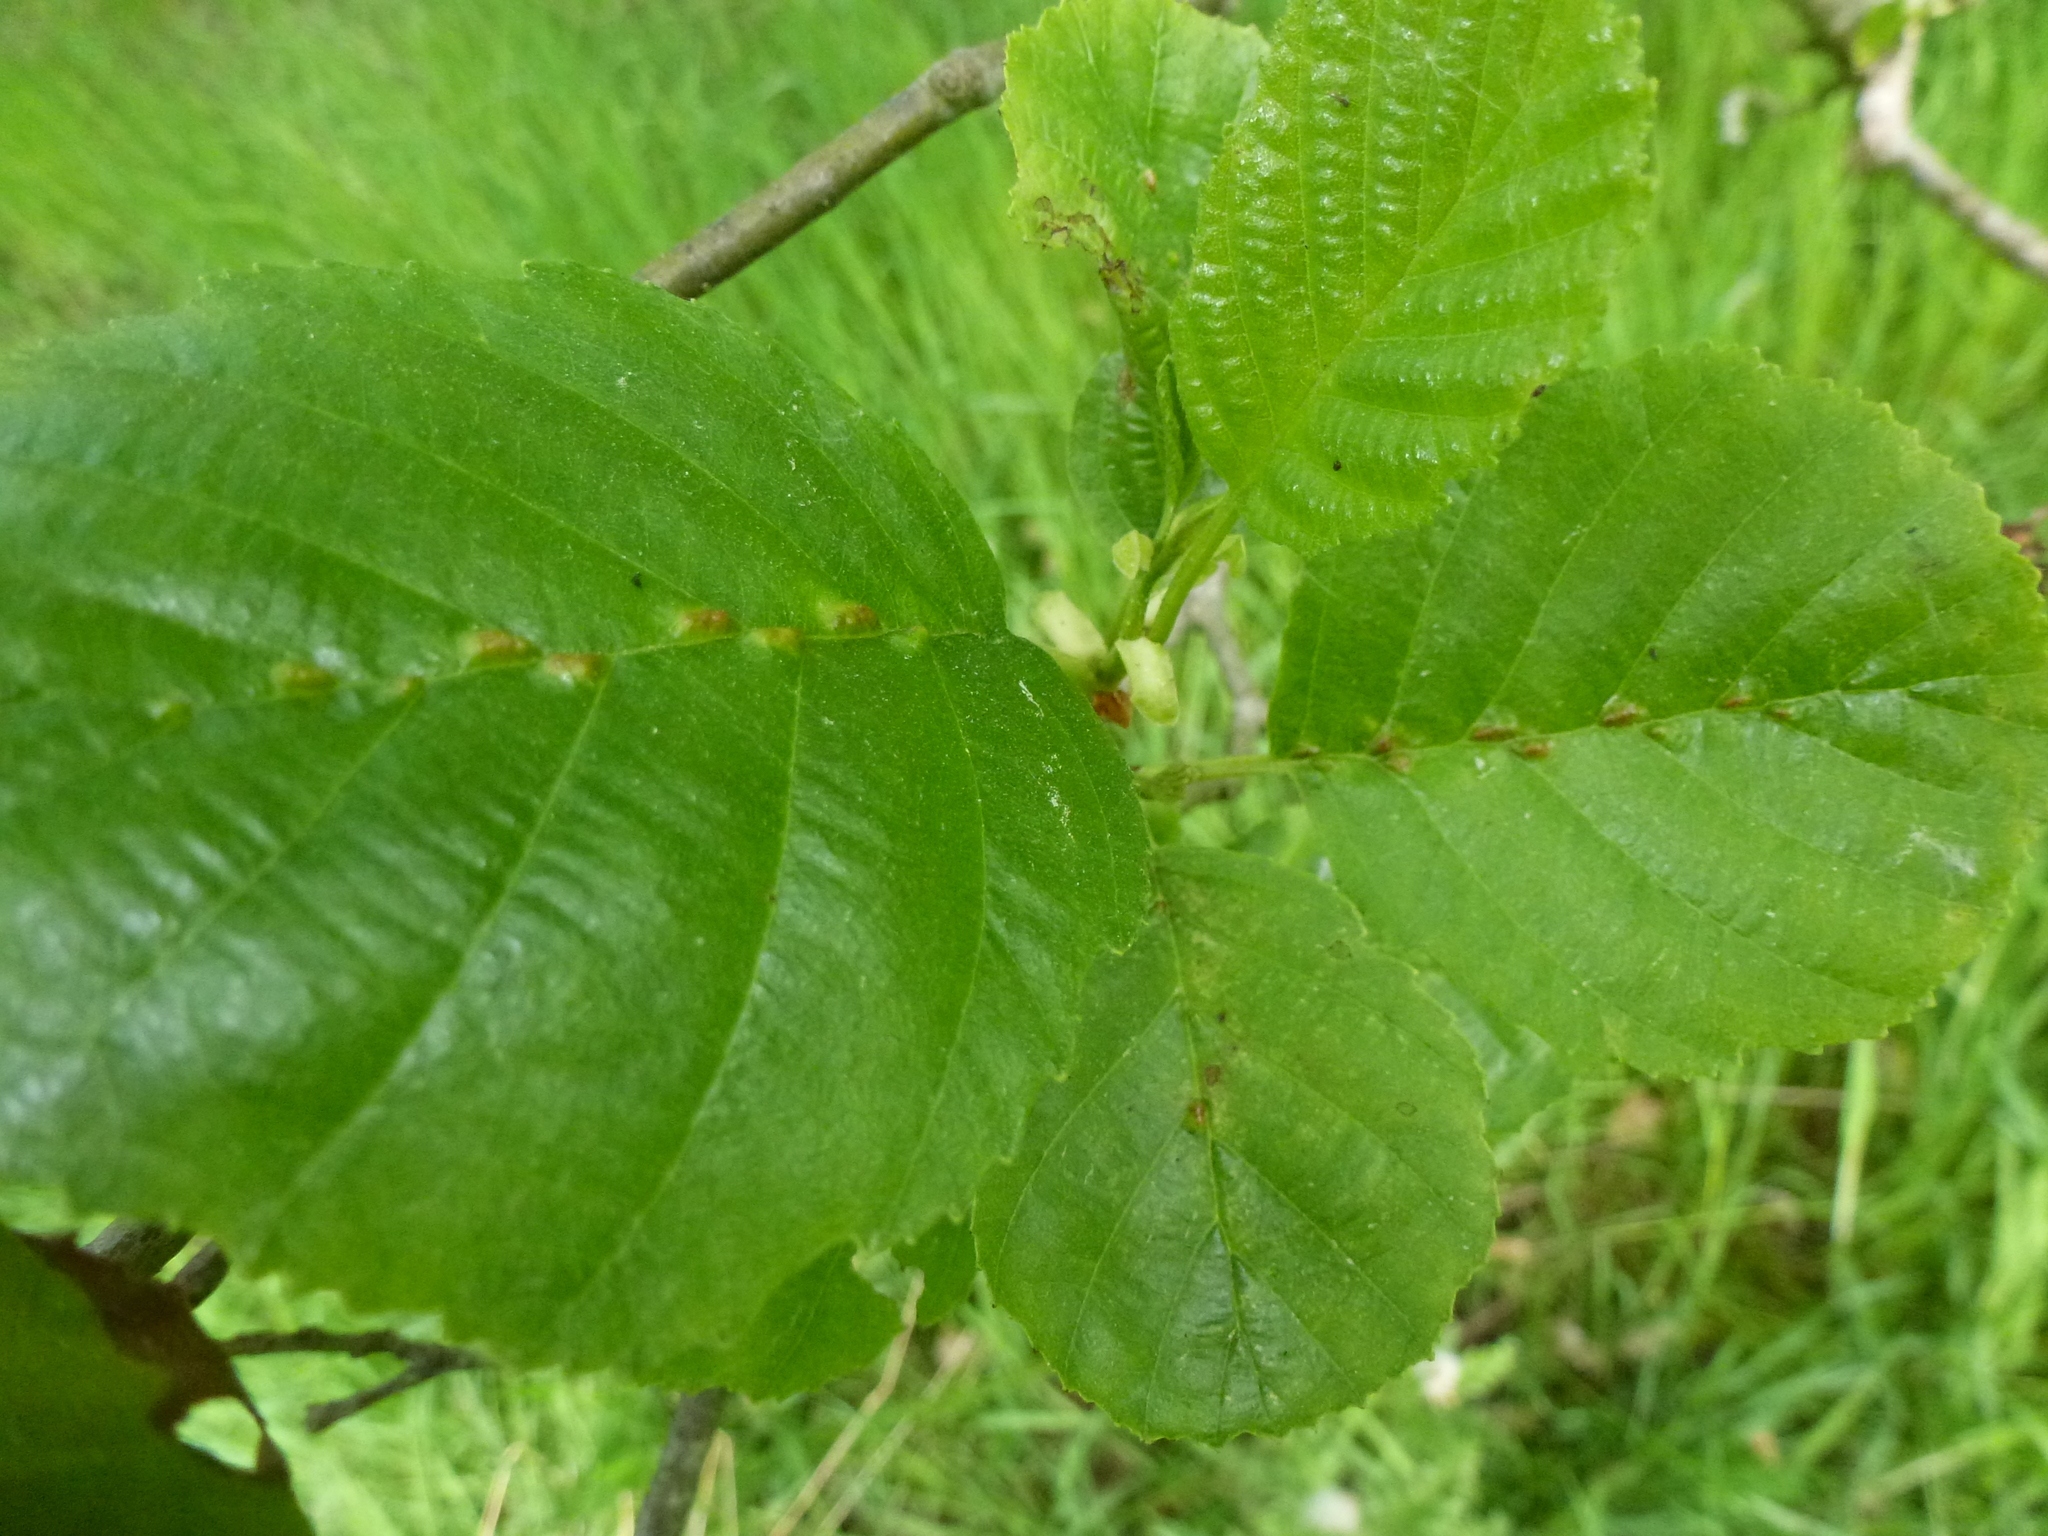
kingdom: Animalia
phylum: Arthropoda
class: Arachnida
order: Trombidiformes
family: Eriophyidae
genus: Eriophyes
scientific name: Eriophyes inangulis
